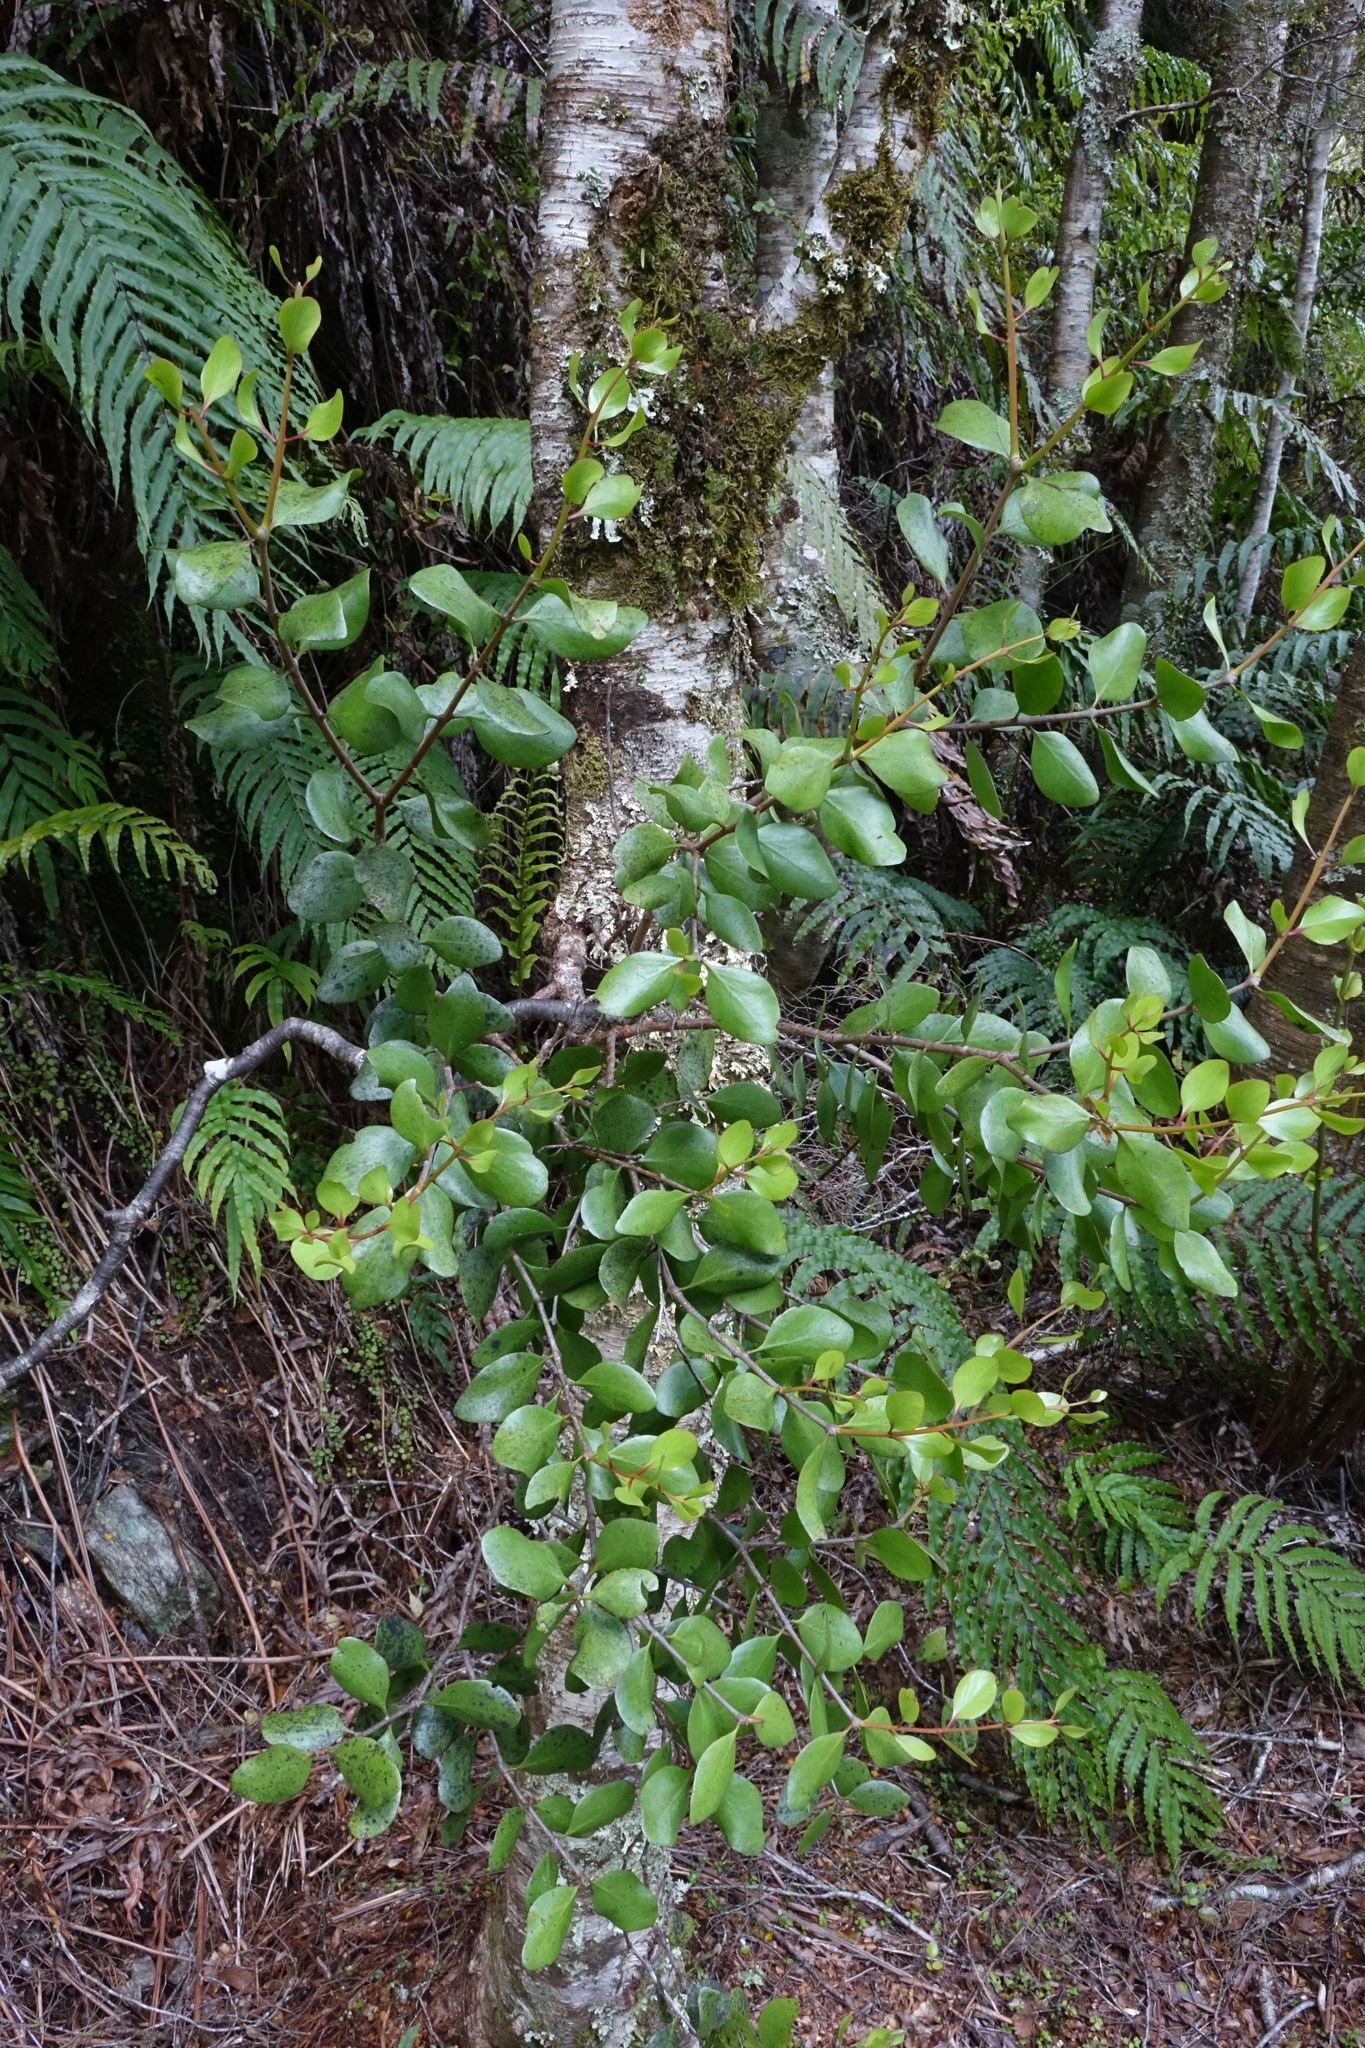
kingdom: Plantae
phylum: Tracheophyta
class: Magnoliopsida
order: Santalales
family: Loranthaceae
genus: Peraxilla
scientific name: Peraxilla colensoi
